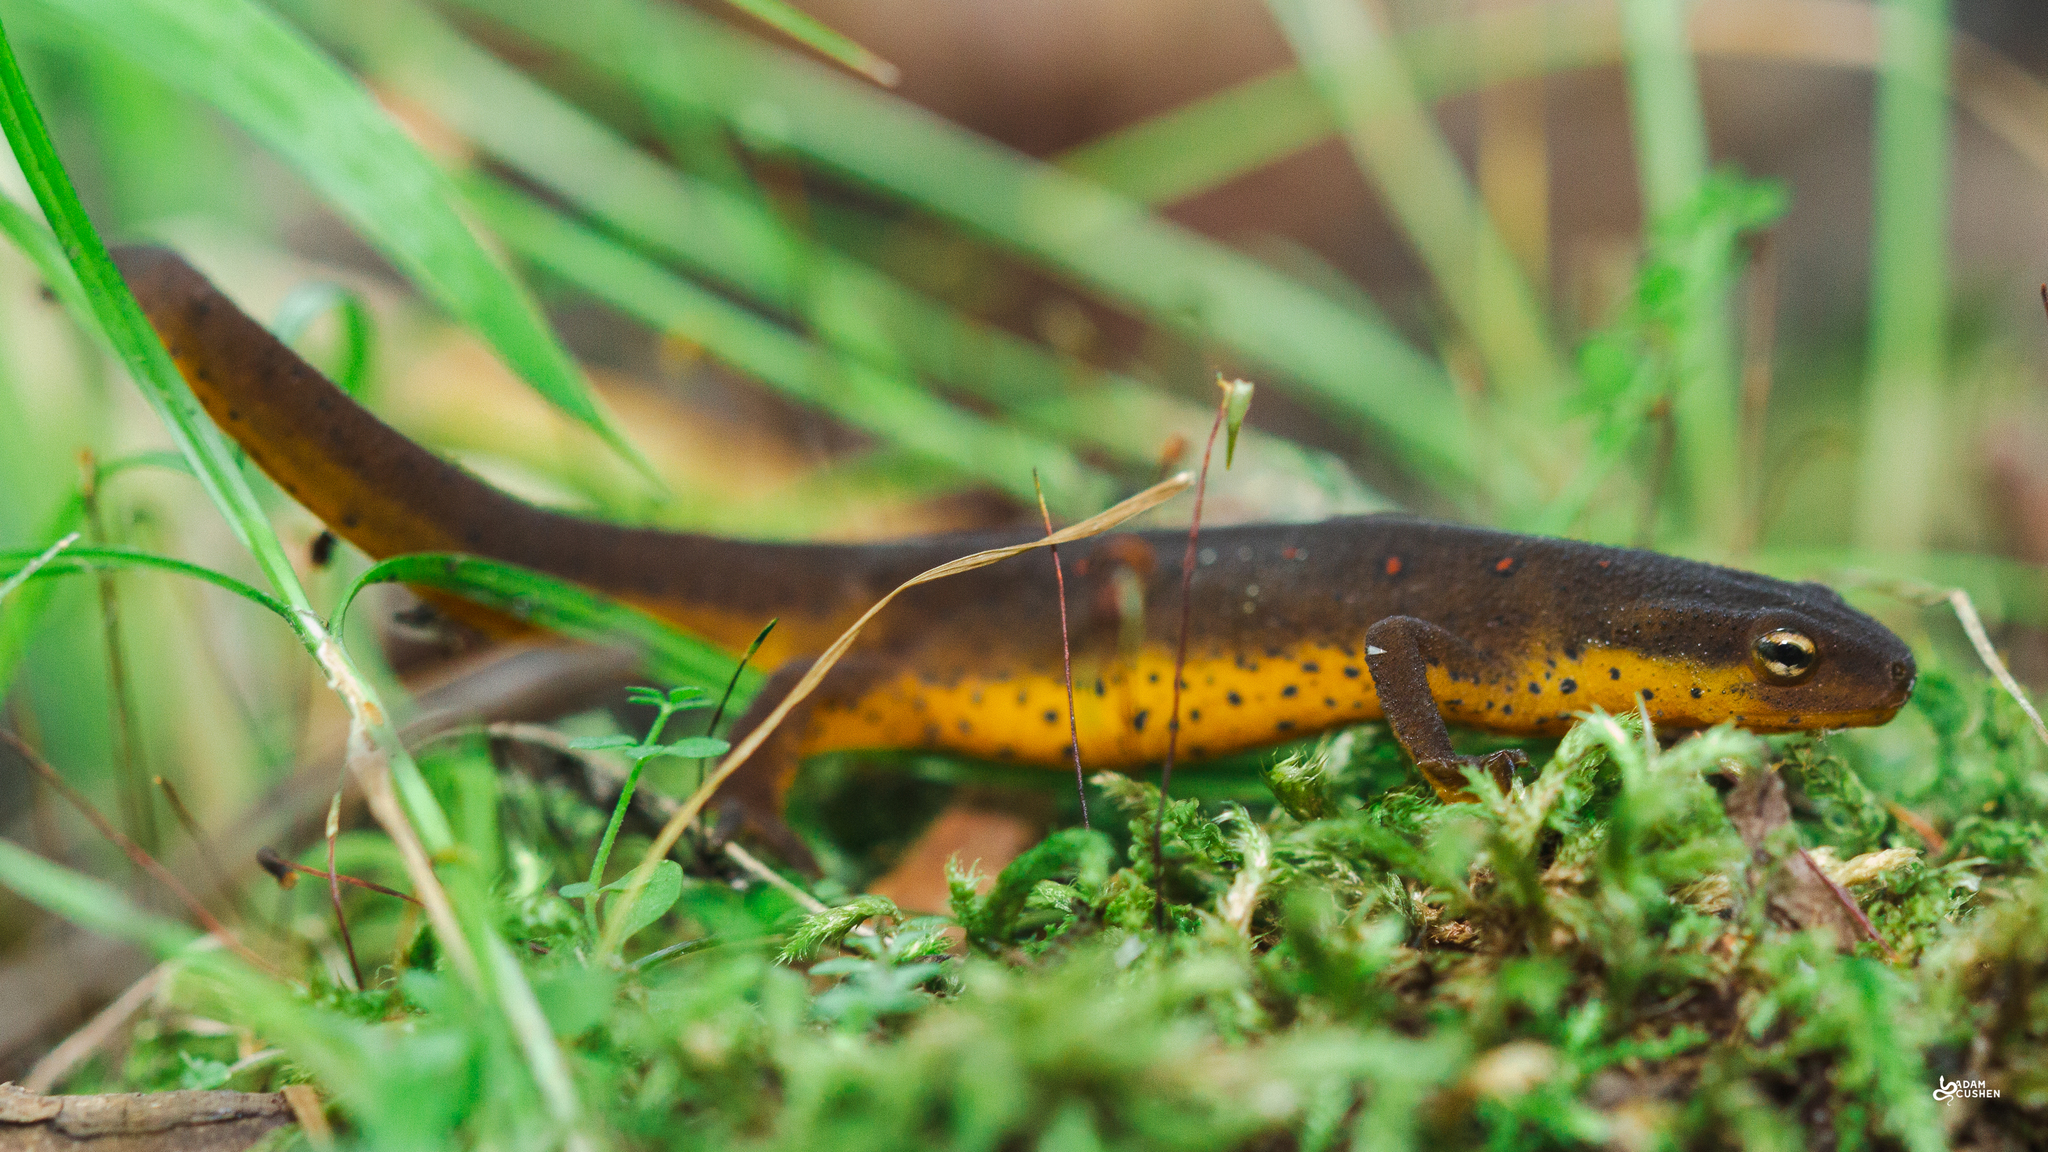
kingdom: Animalia
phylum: Chordata
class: Amphibia
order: Caudata
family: Salamandridae
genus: Notophthalmus
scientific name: Notophthalmus viridescens
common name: Eastern newt
